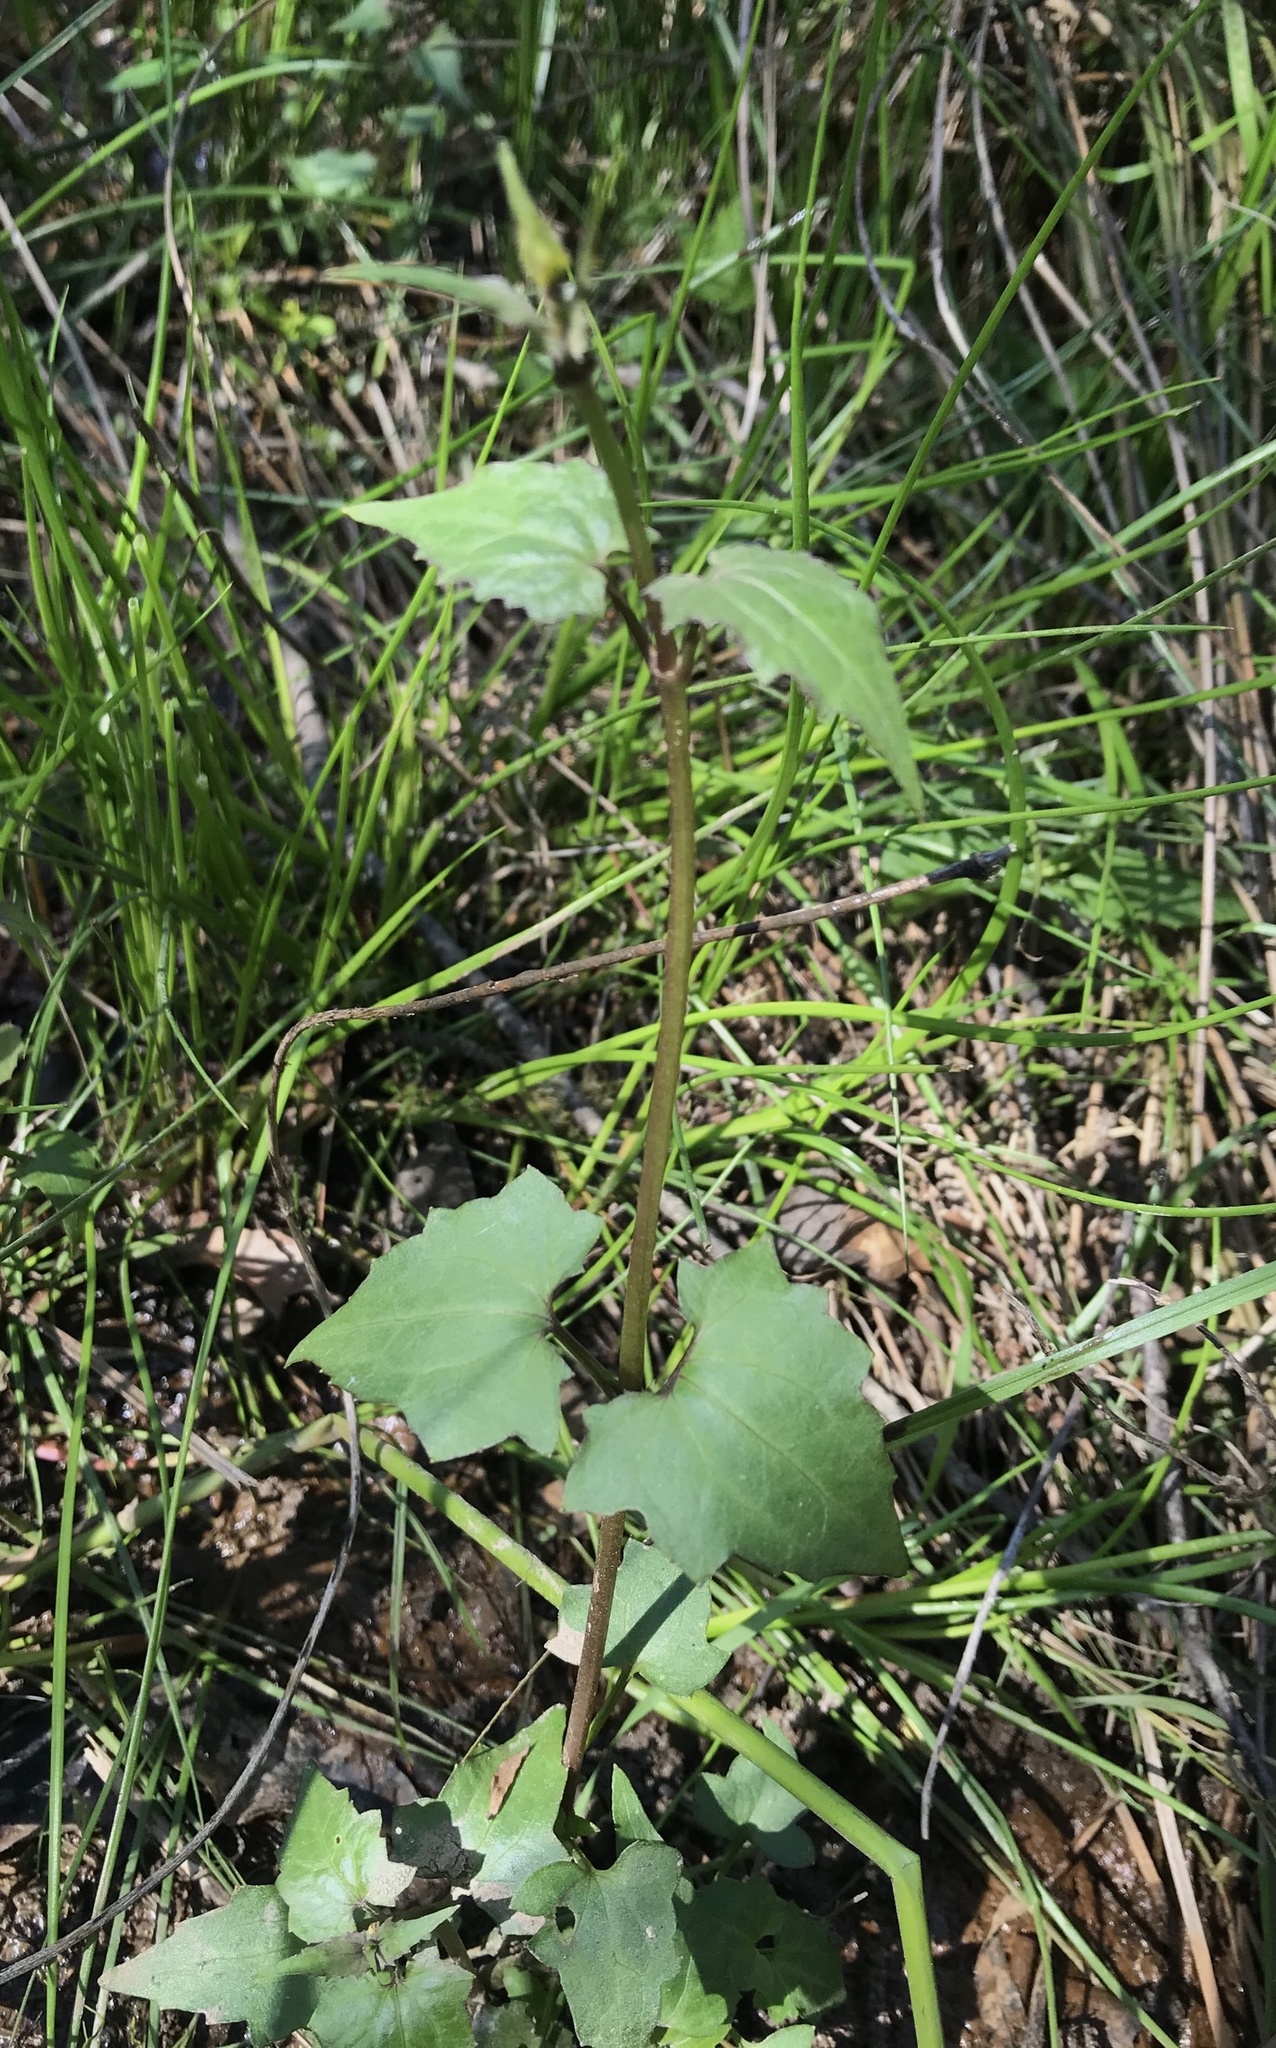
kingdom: Plantae
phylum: Tracheophyta
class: Magnoliopsida
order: Asterales
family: Asteraceae
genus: Mikania
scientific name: Mikania scandens
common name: Climbing hempvine
